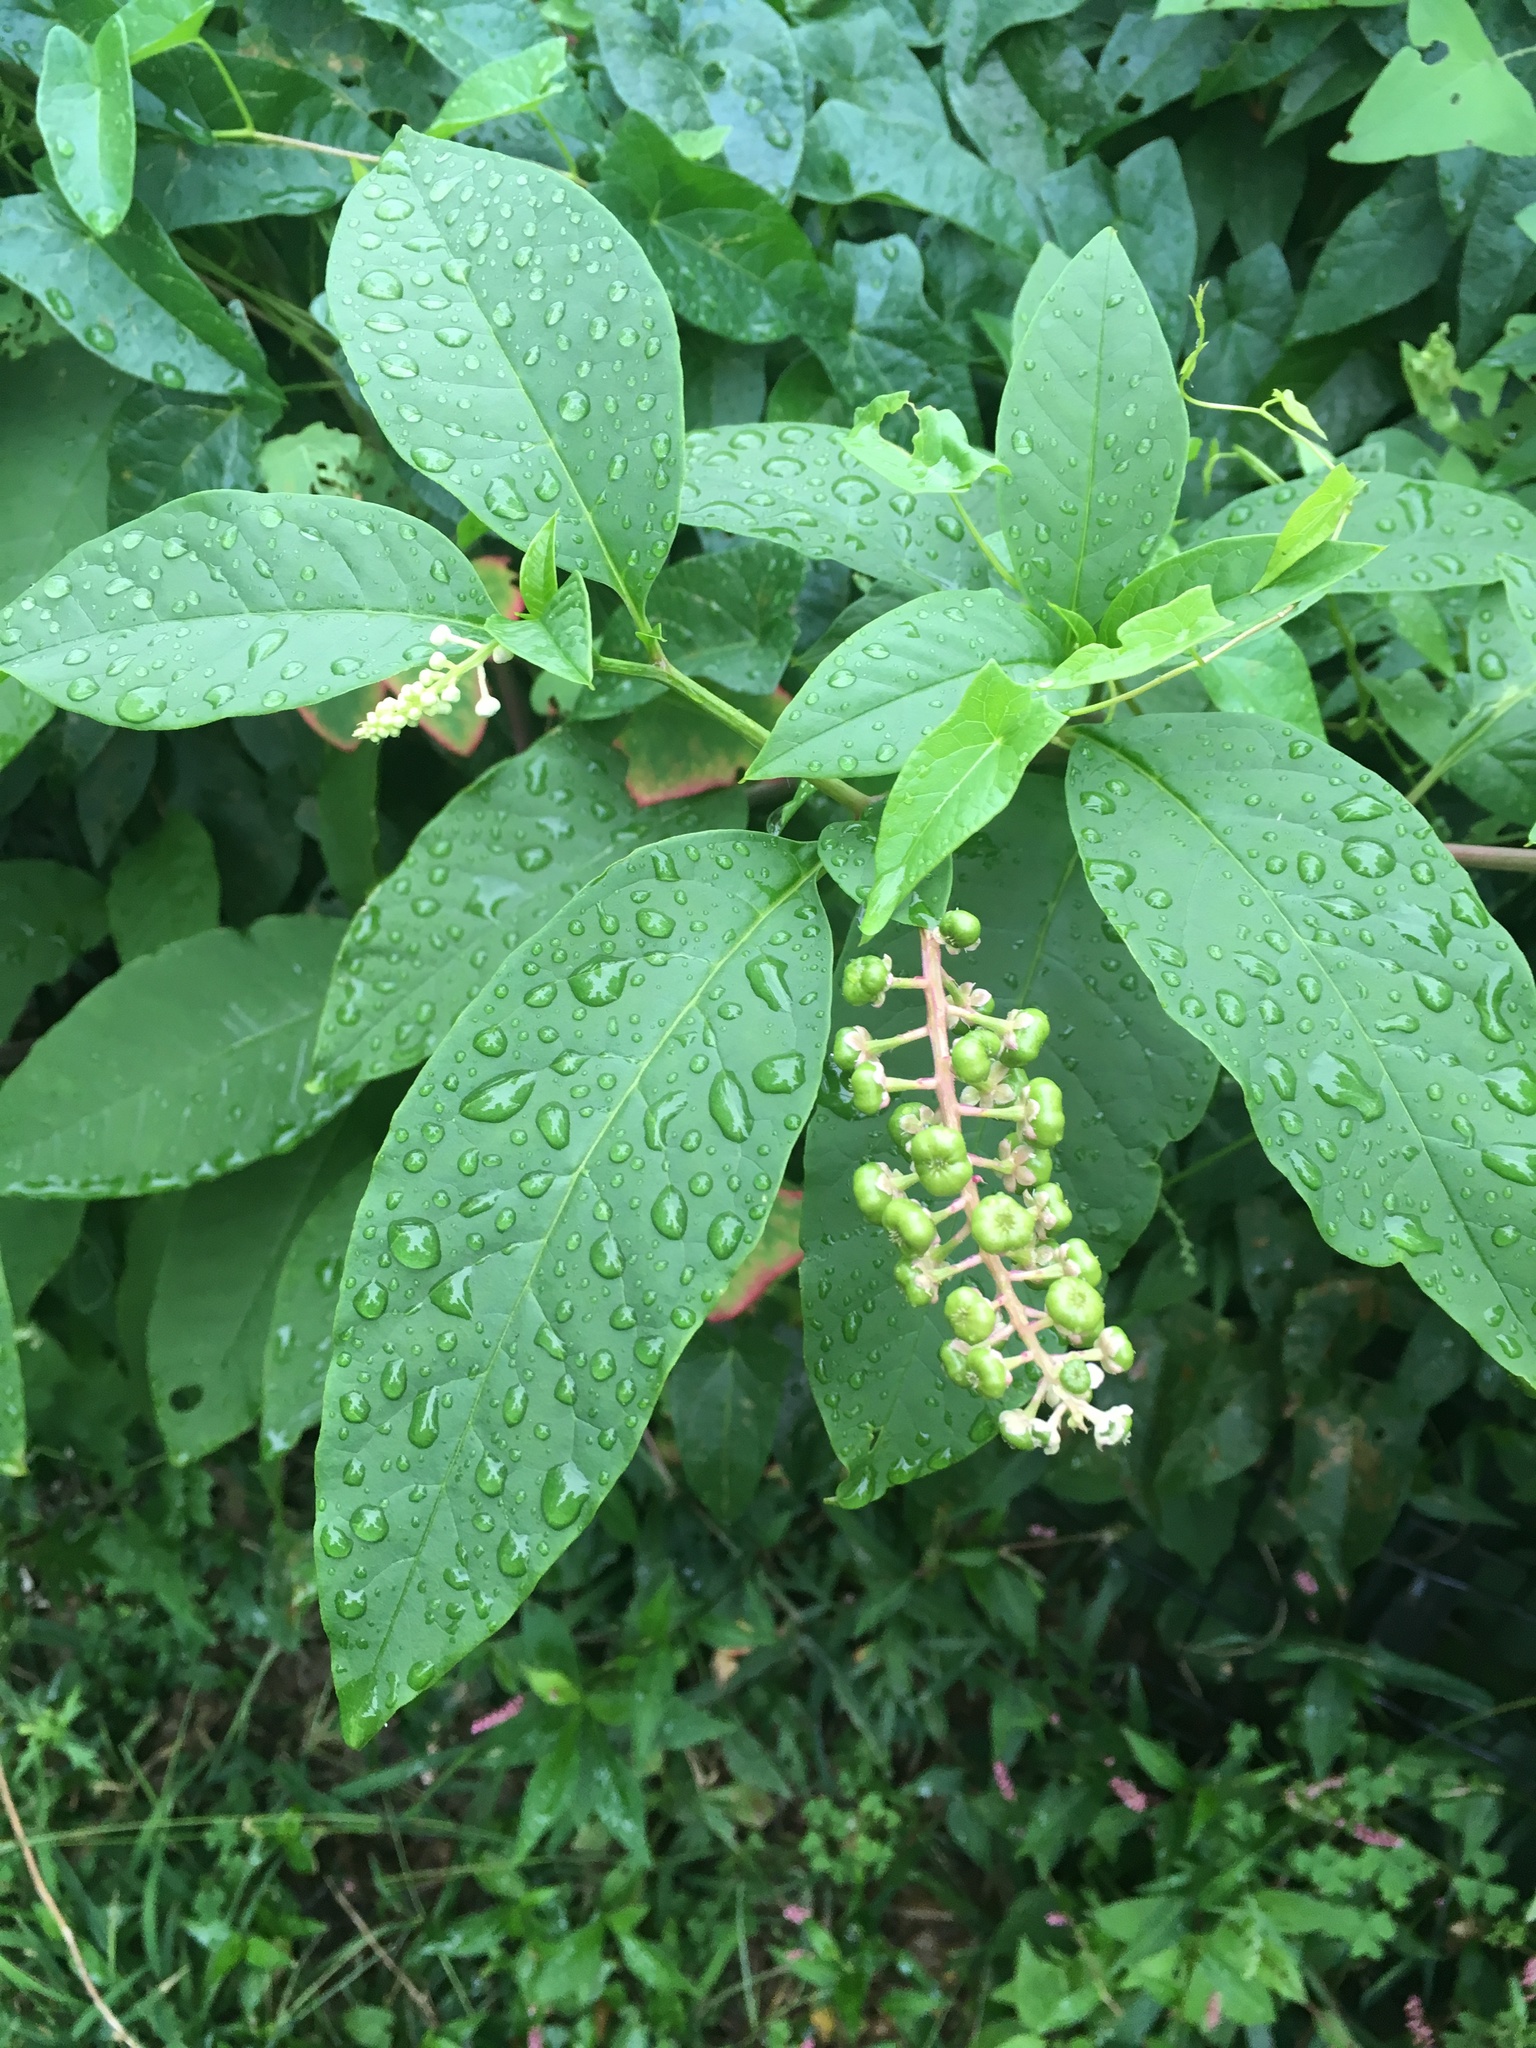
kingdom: Plantae
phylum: Tracheophyta
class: Magnoliopsida
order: Caryophyllales
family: Phytolaccaceae
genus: Phytolacca
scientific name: Phytolacca americana
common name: American pokeweed
